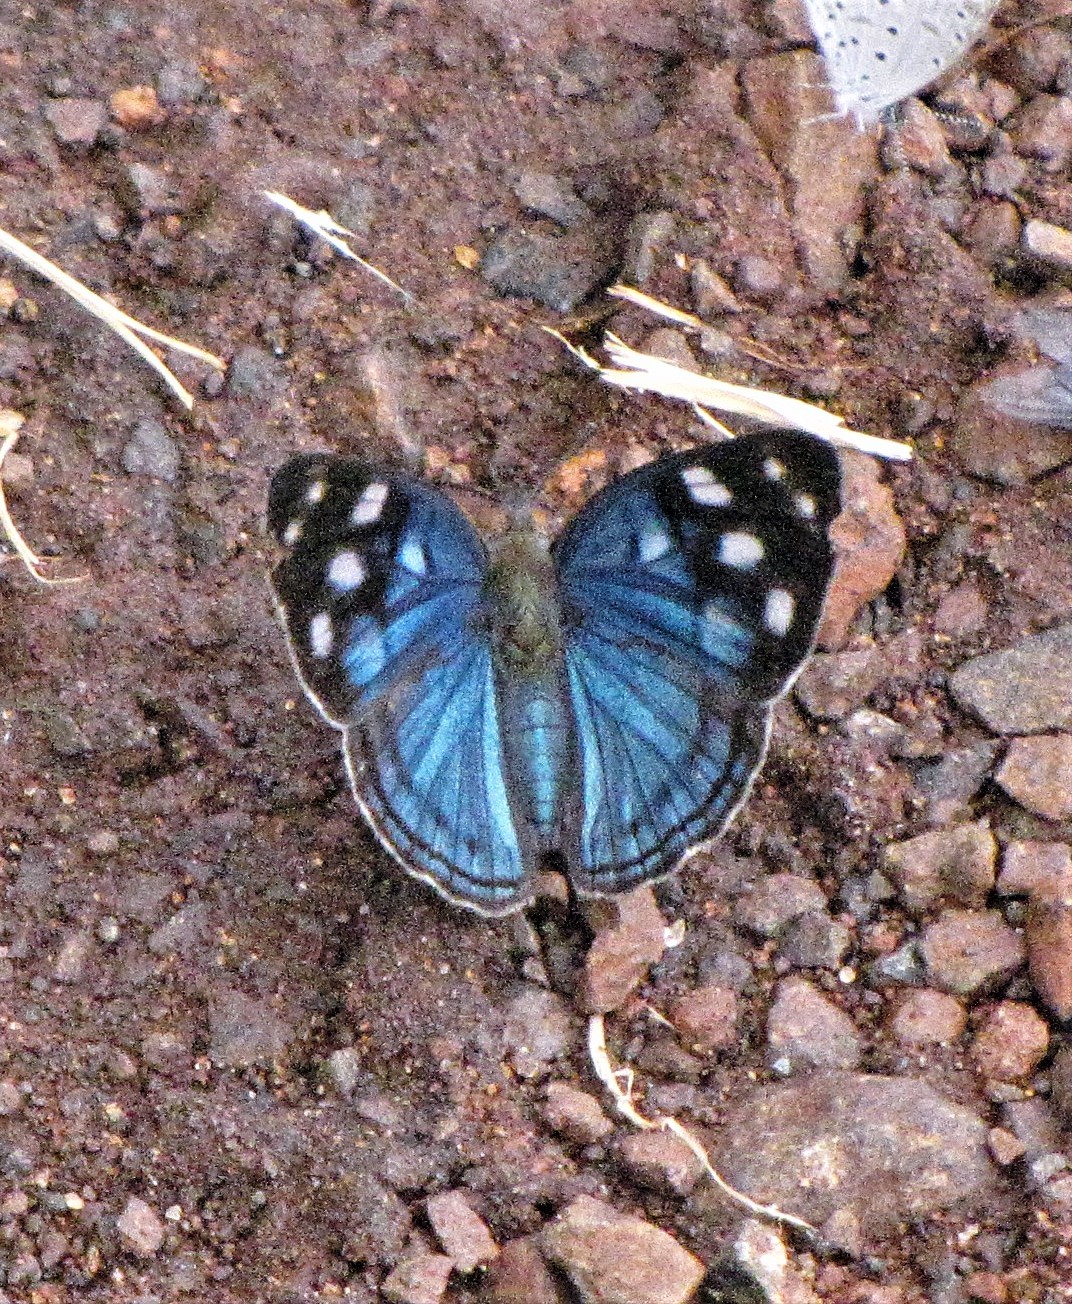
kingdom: Animalia
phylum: Arthropoda
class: Insecta
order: Lepidoptera
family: Nymphalidae
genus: Dynamine
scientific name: Dynamine tithia
